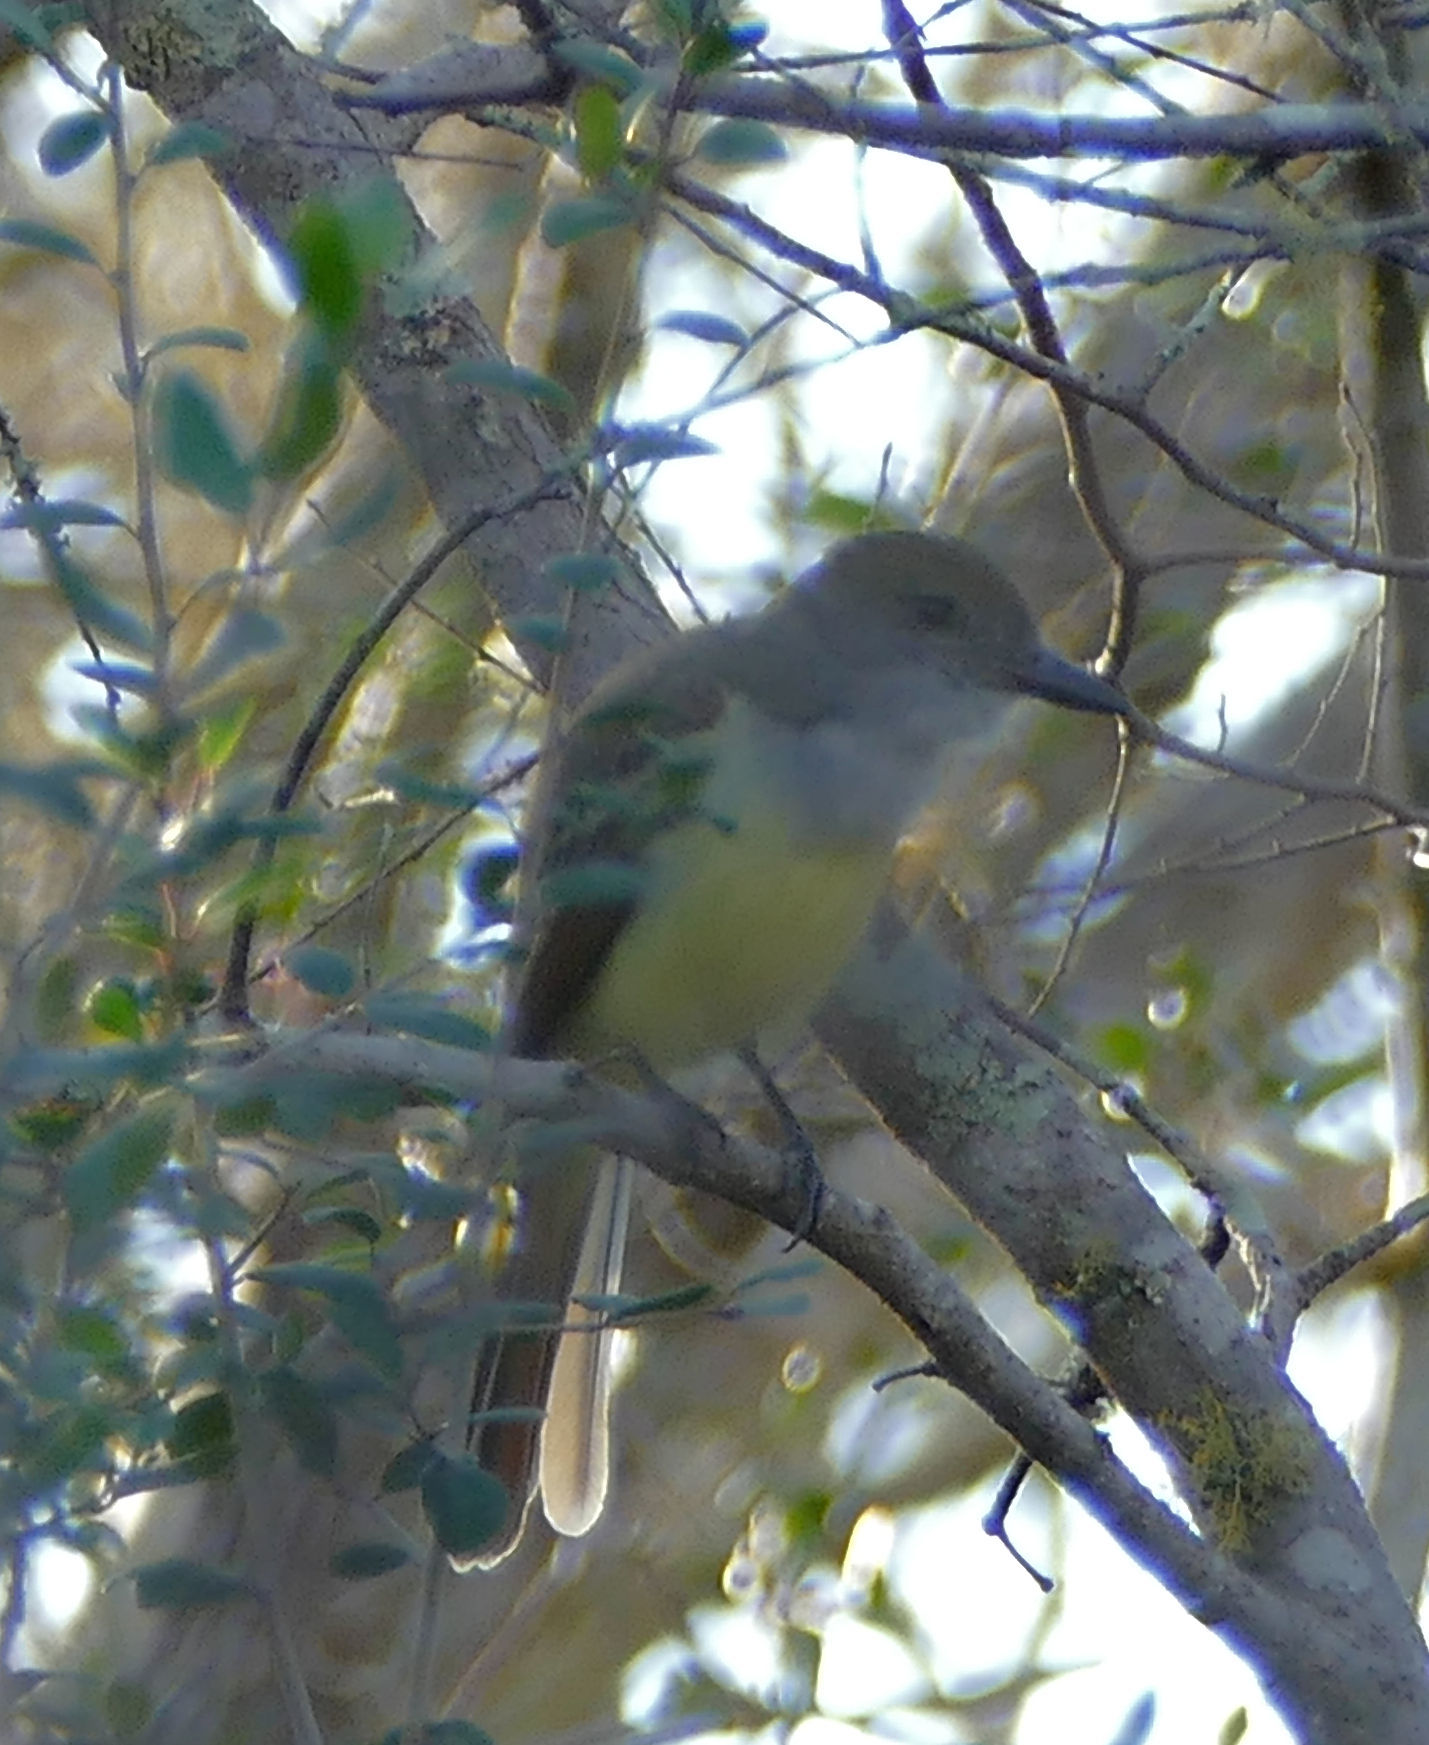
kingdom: Animalia
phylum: Chordata
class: Aves
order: Passeriformes
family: Tyrannidae
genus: Myiarchus
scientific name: Myiarchus tyrannulus
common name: Brown-crested flycatcher
